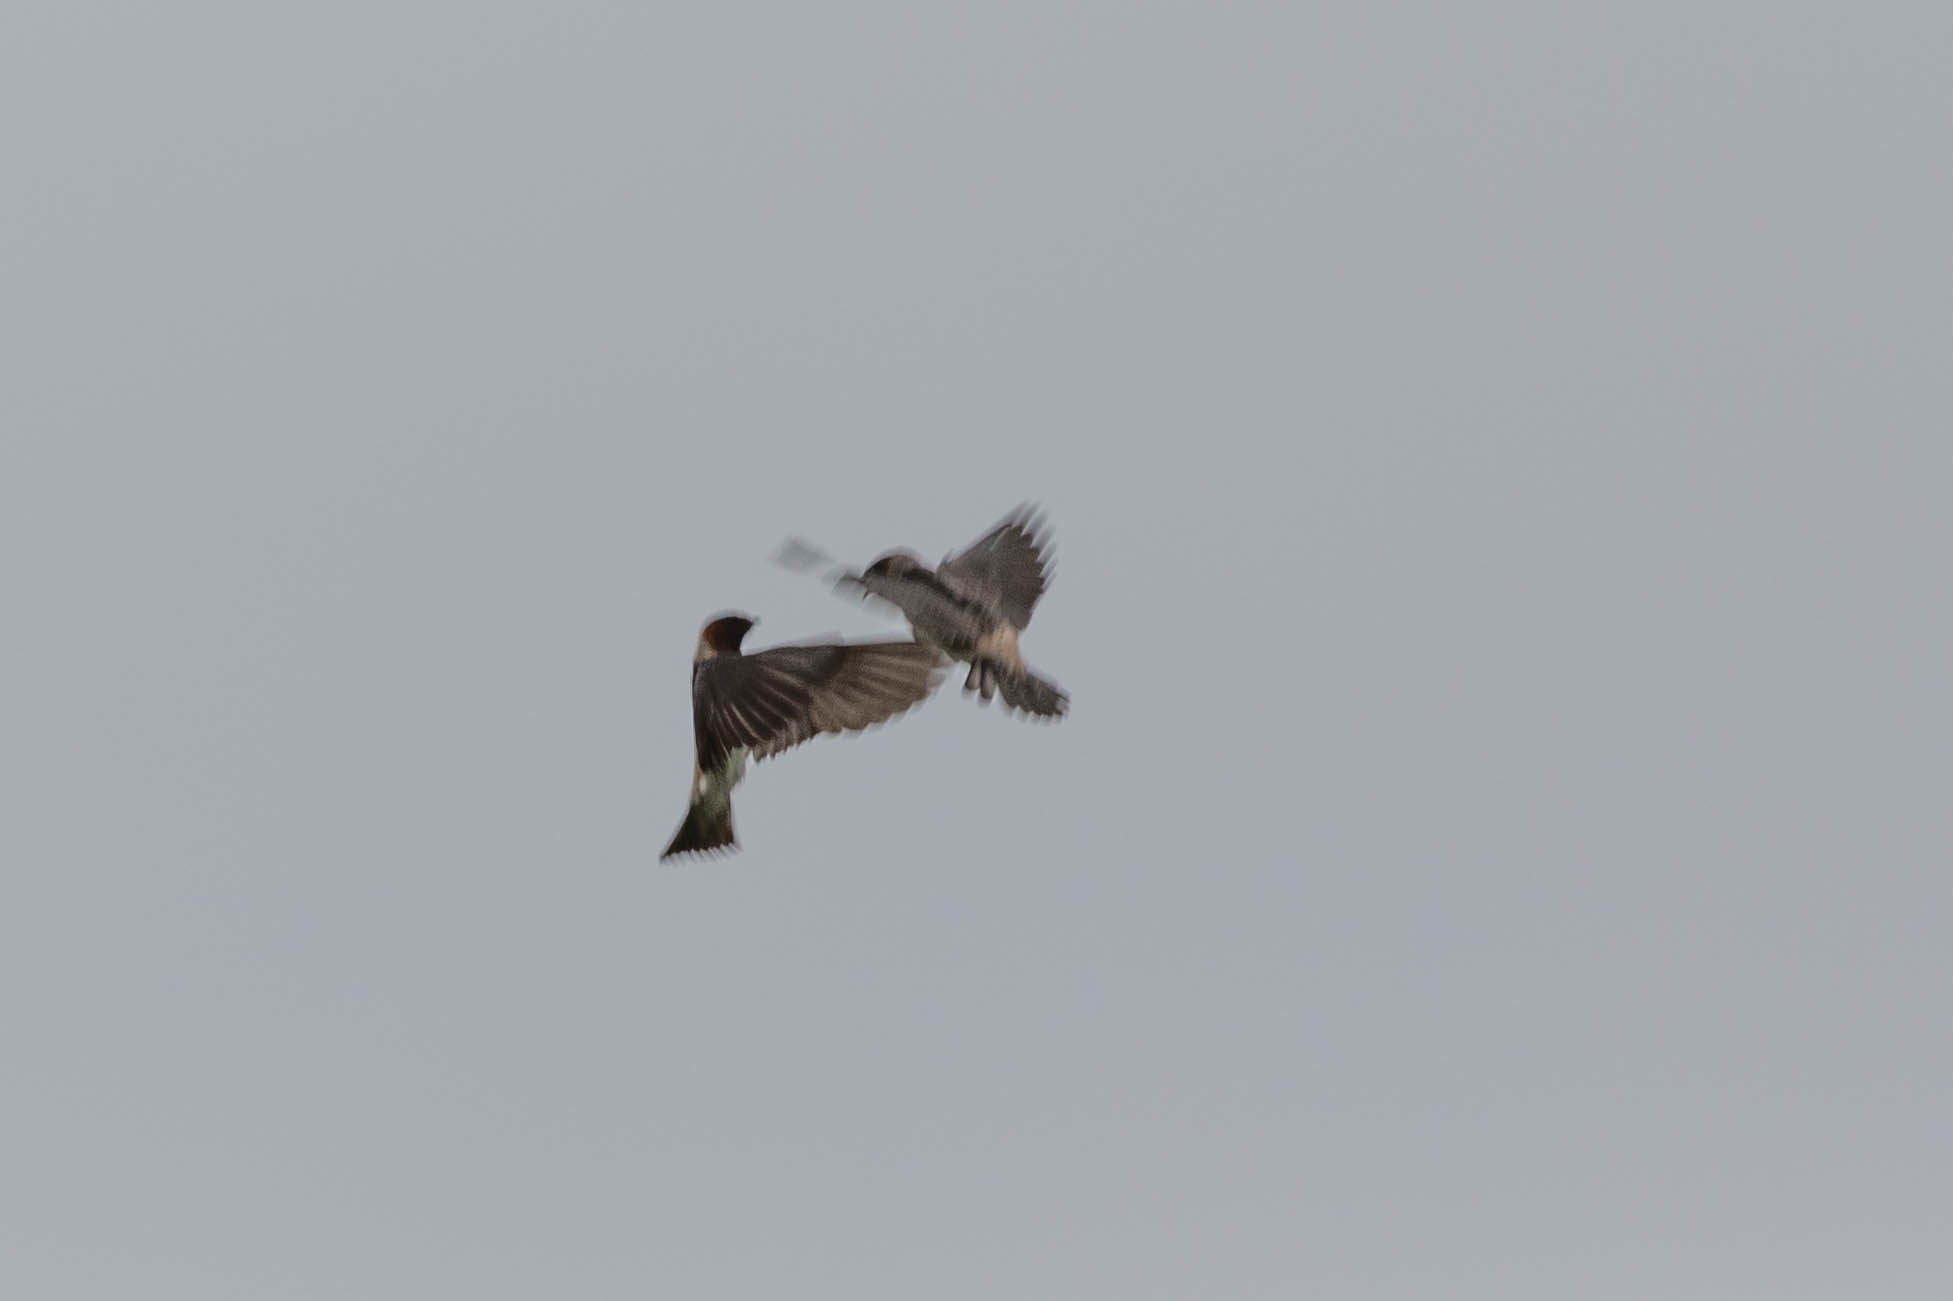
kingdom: Animalia
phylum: Chordata
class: Aves
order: Passeriformes
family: Hirundinidae
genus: Petrochelidon
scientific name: Petrochelidon pyrrhonota
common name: American cliff swallow
